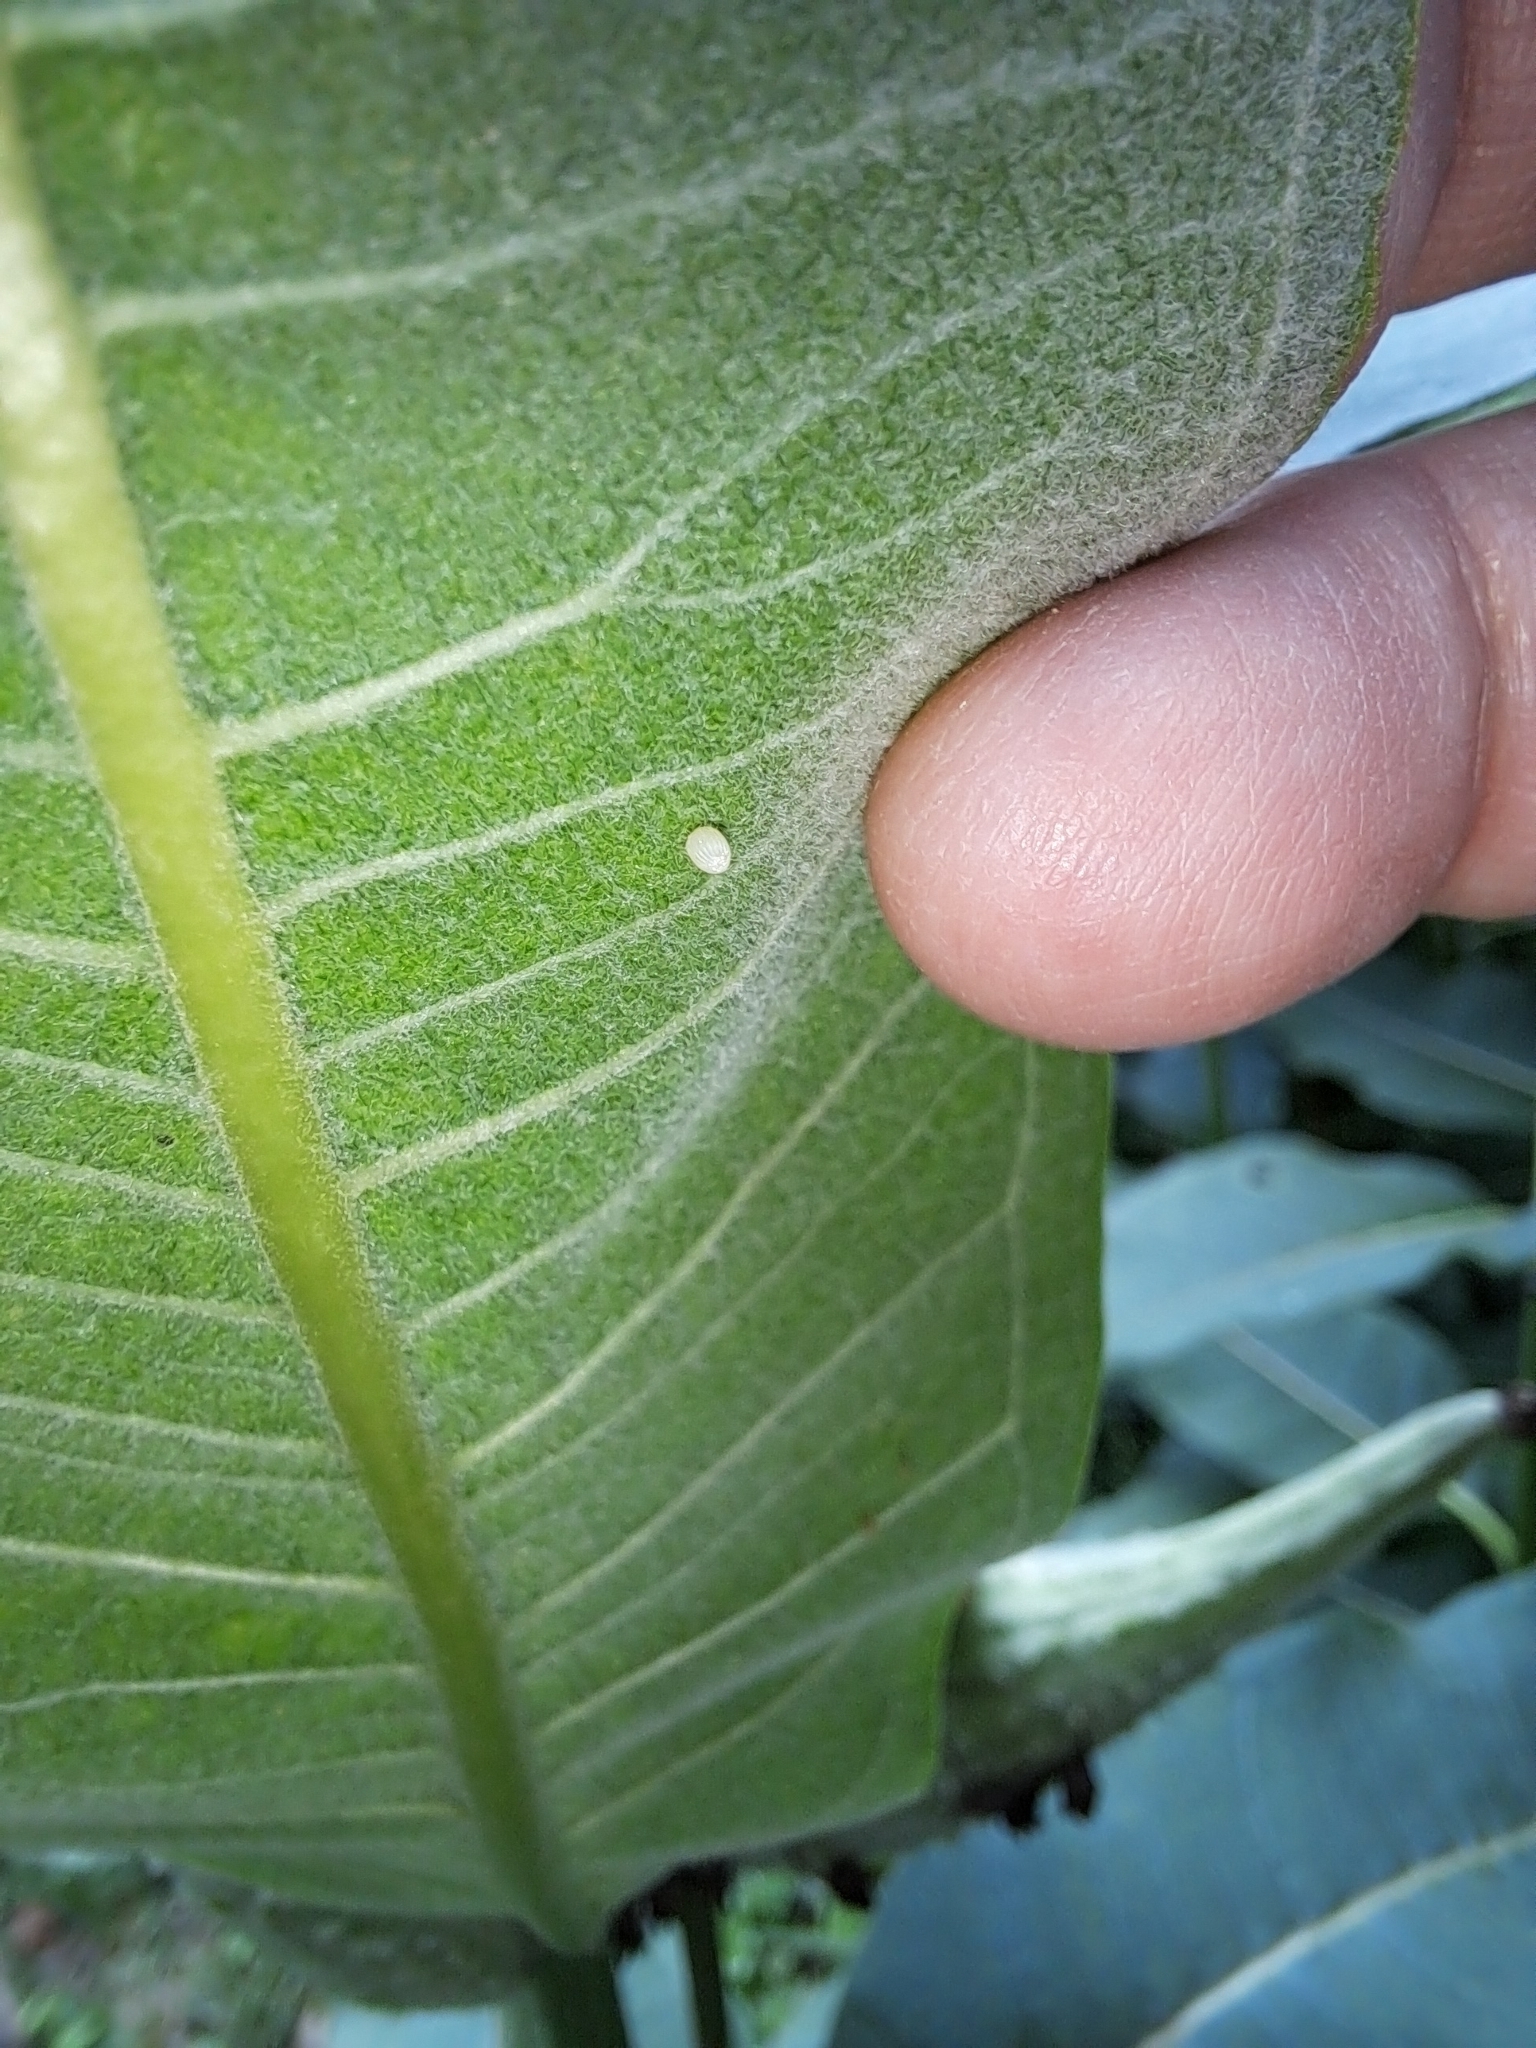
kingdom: Animalia
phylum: Arthropoda
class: Insecta
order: Lepidoptera
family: Nymphalidae
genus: Danaus
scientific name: Danaus plexippus
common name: Monarch
